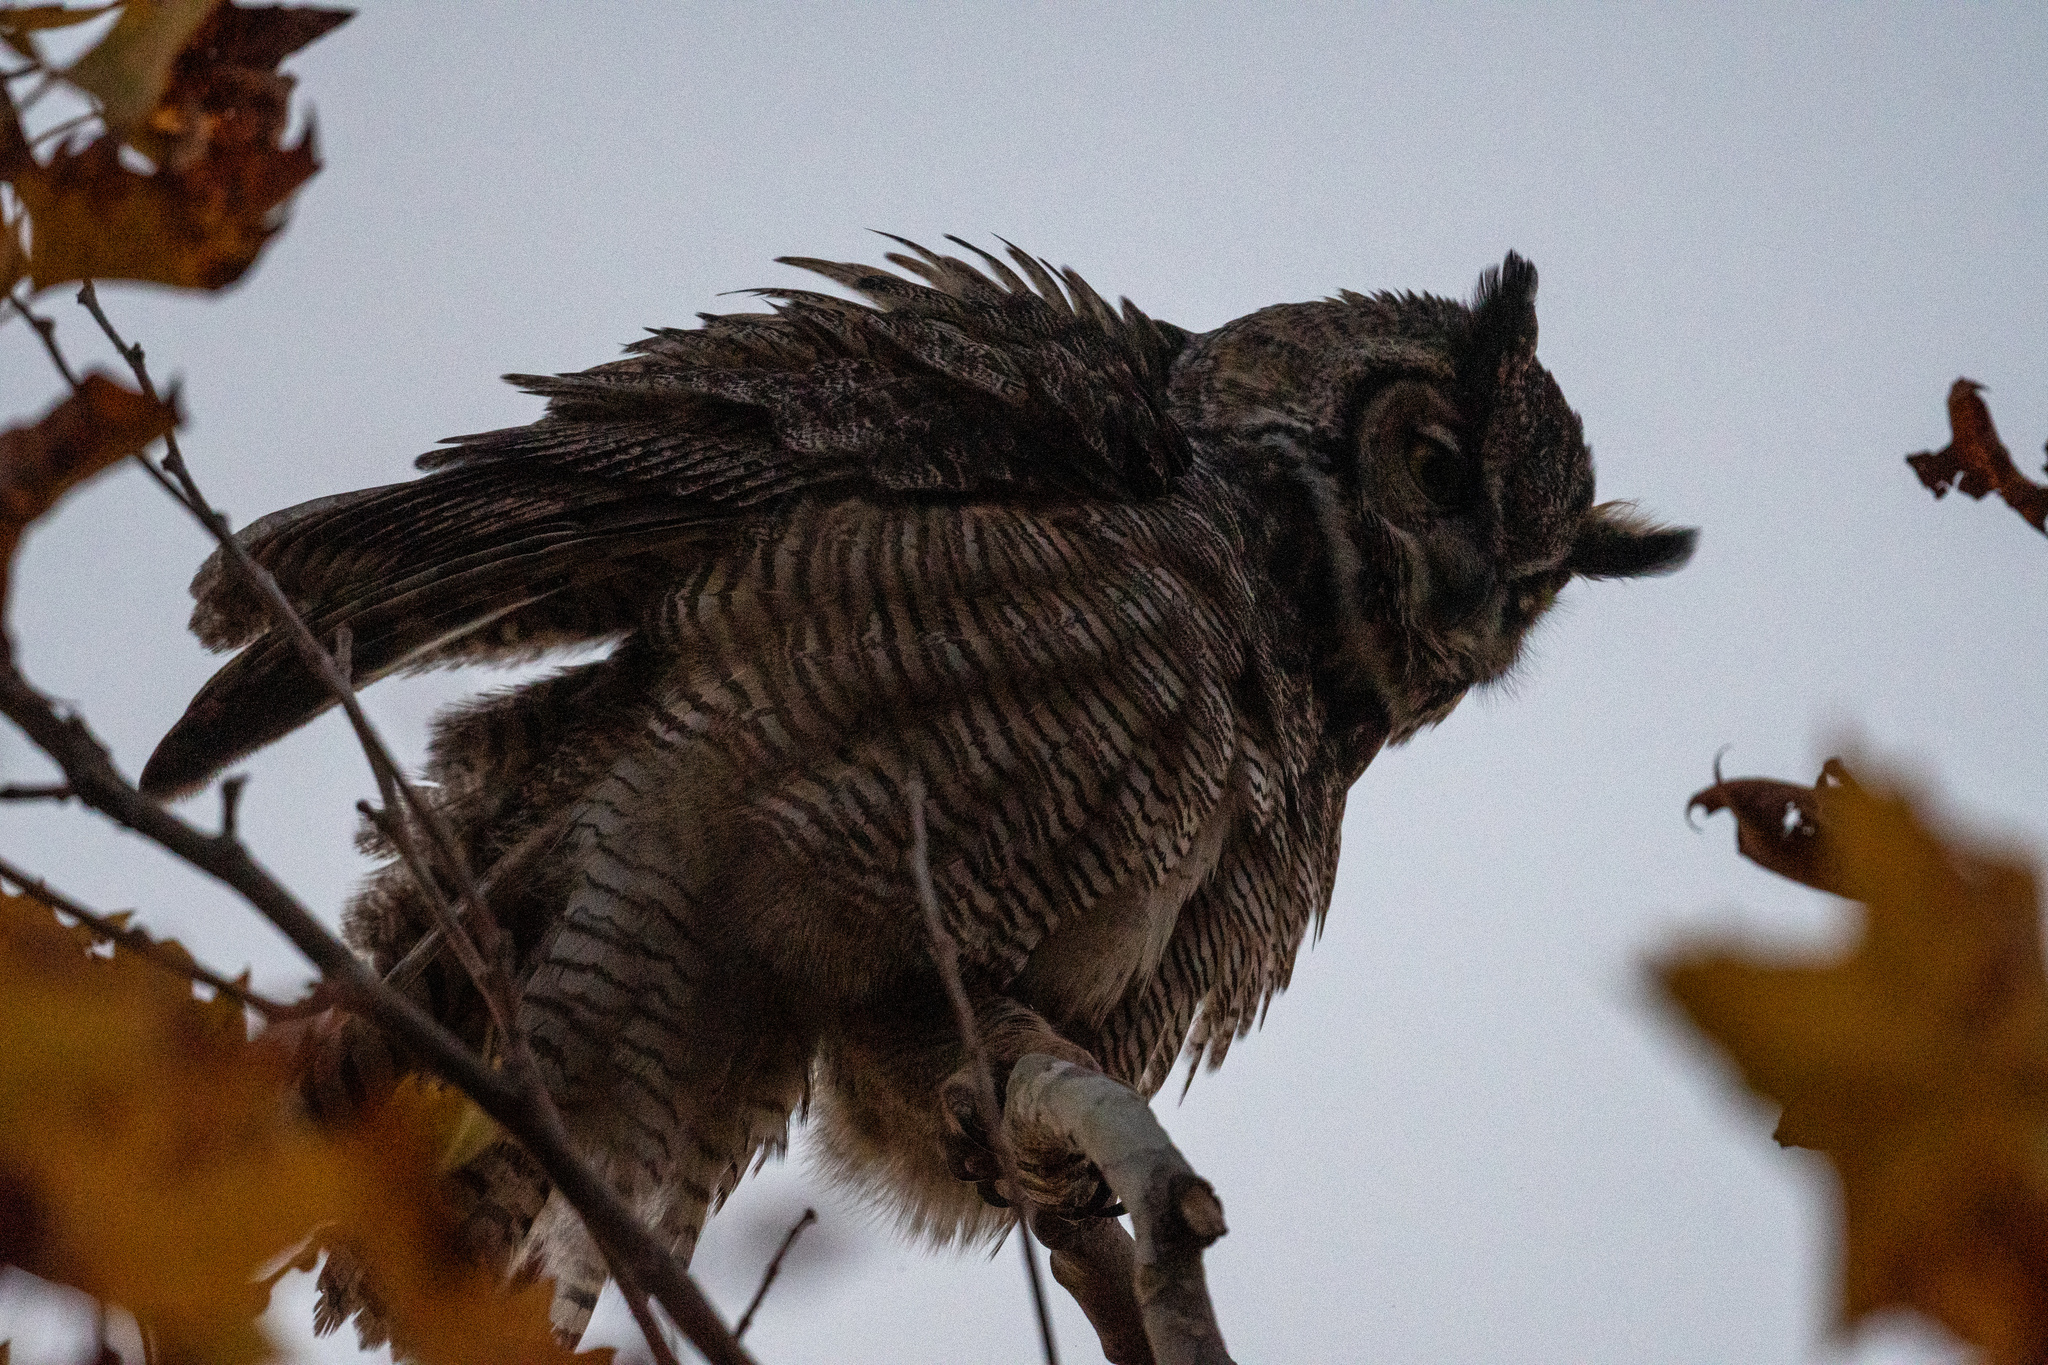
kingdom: Animalia
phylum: Chordata
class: Aves
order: Strigiformes
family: Strigidae
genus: Bubo
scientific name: Bubo virginianus
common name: Great horned owl
